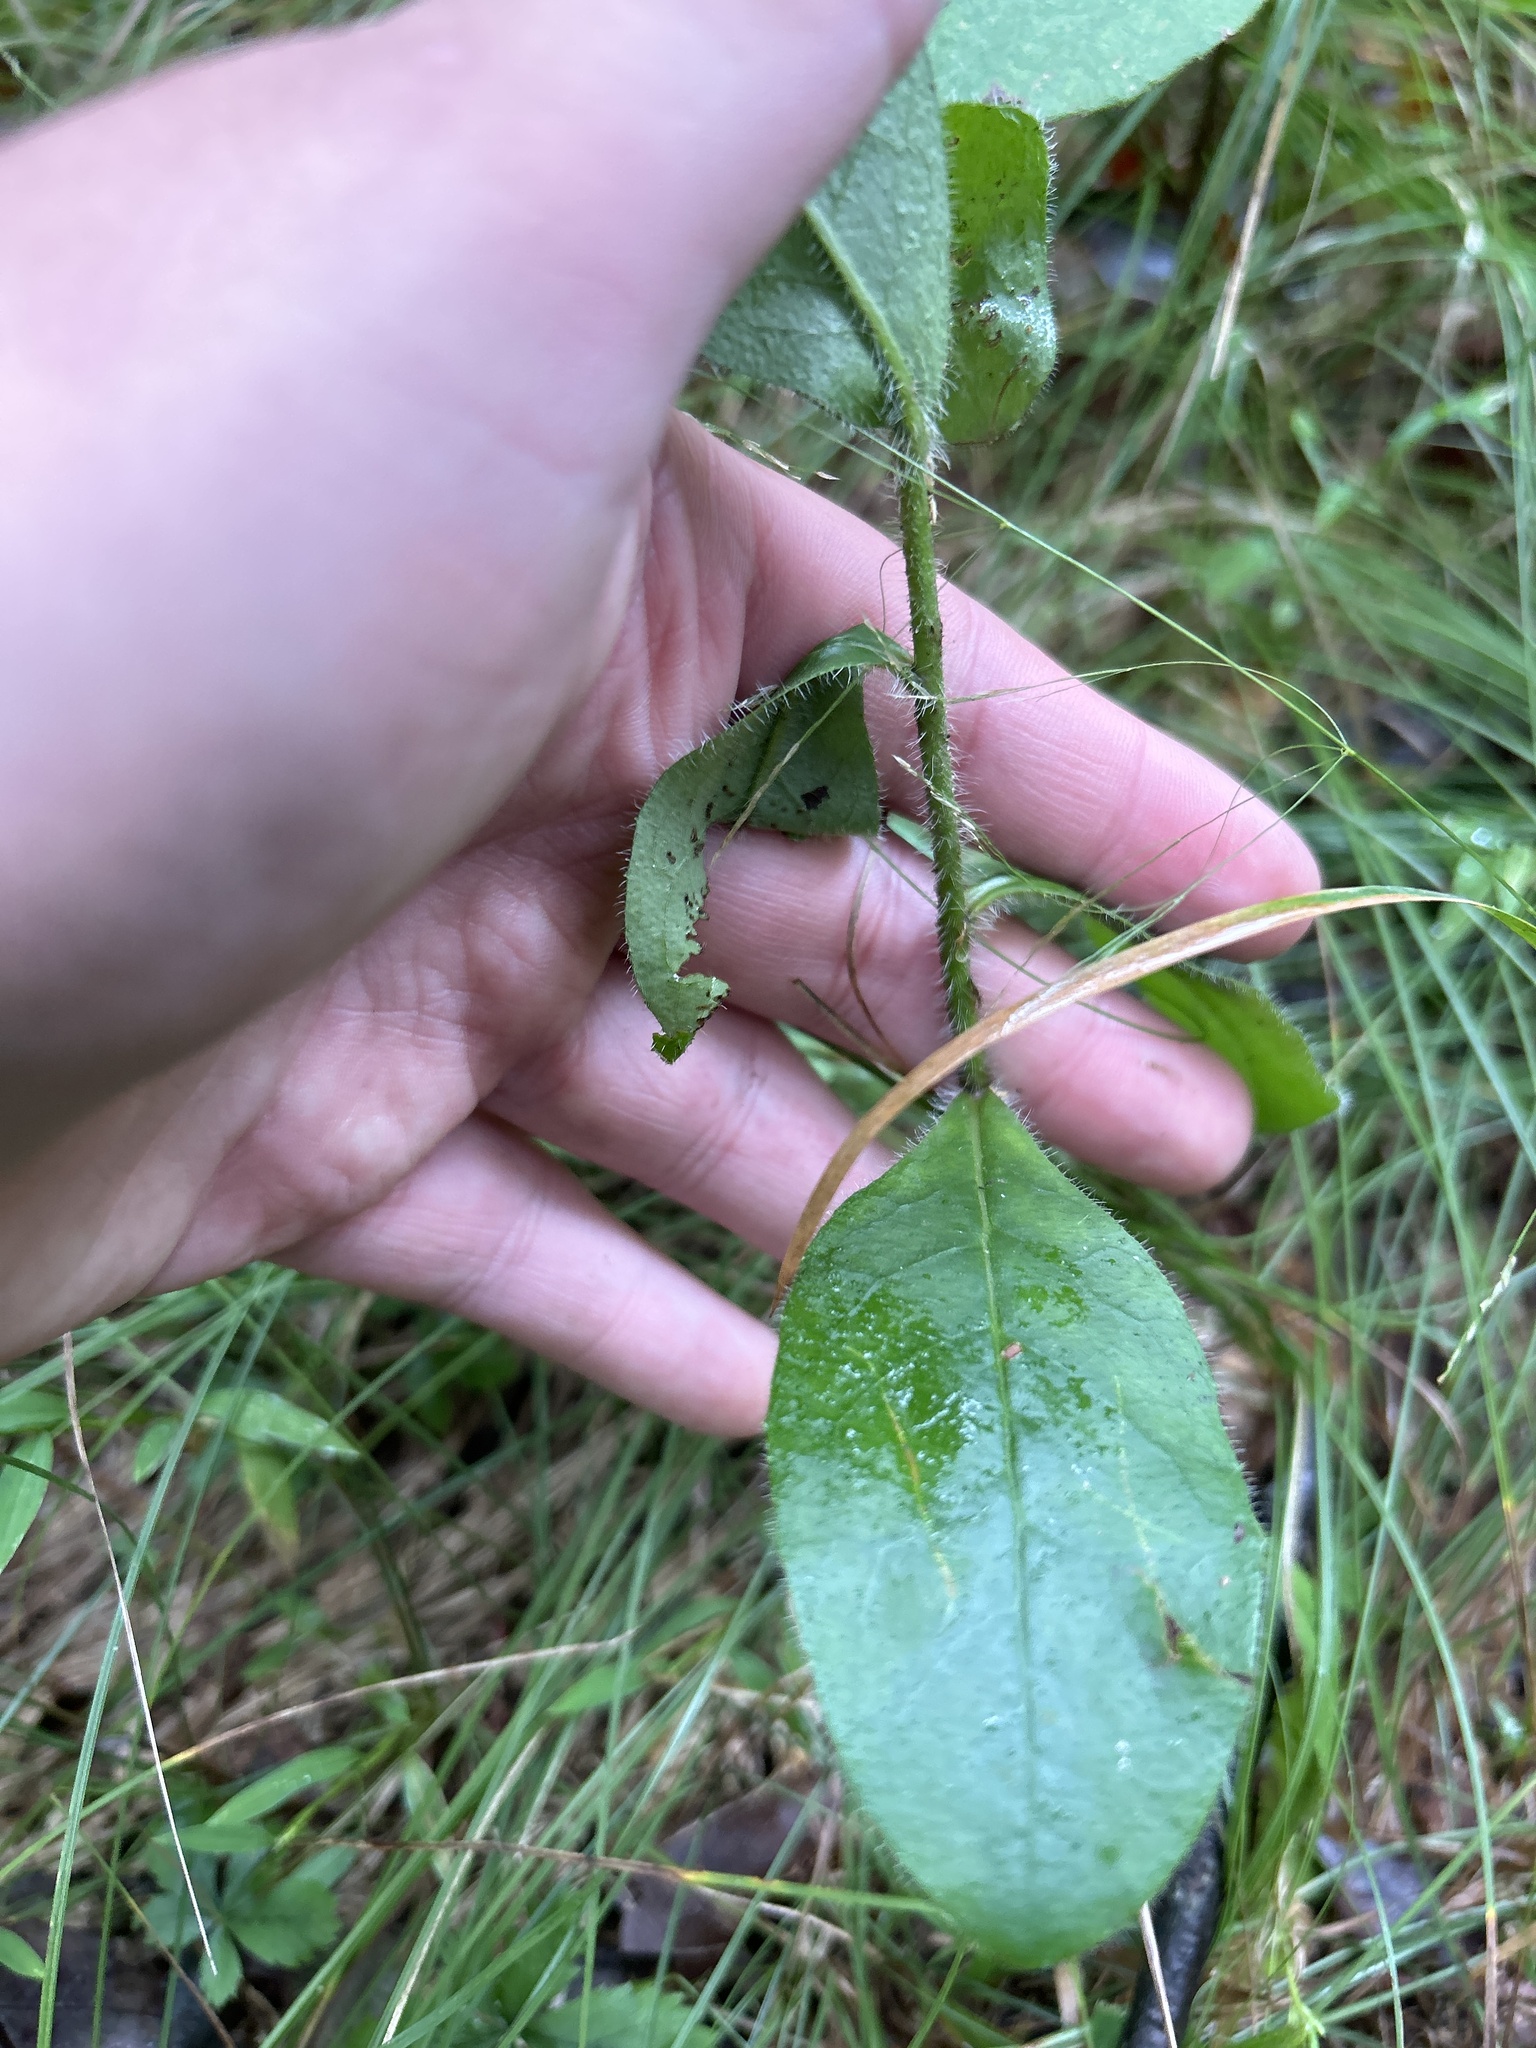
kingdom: Plantae
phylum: Tracheophyta
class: Magnoliopsida
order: Asterales
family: Asteraceae
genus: Hieracium
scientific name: Hieracium scabrum
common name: Rough hawkweed
